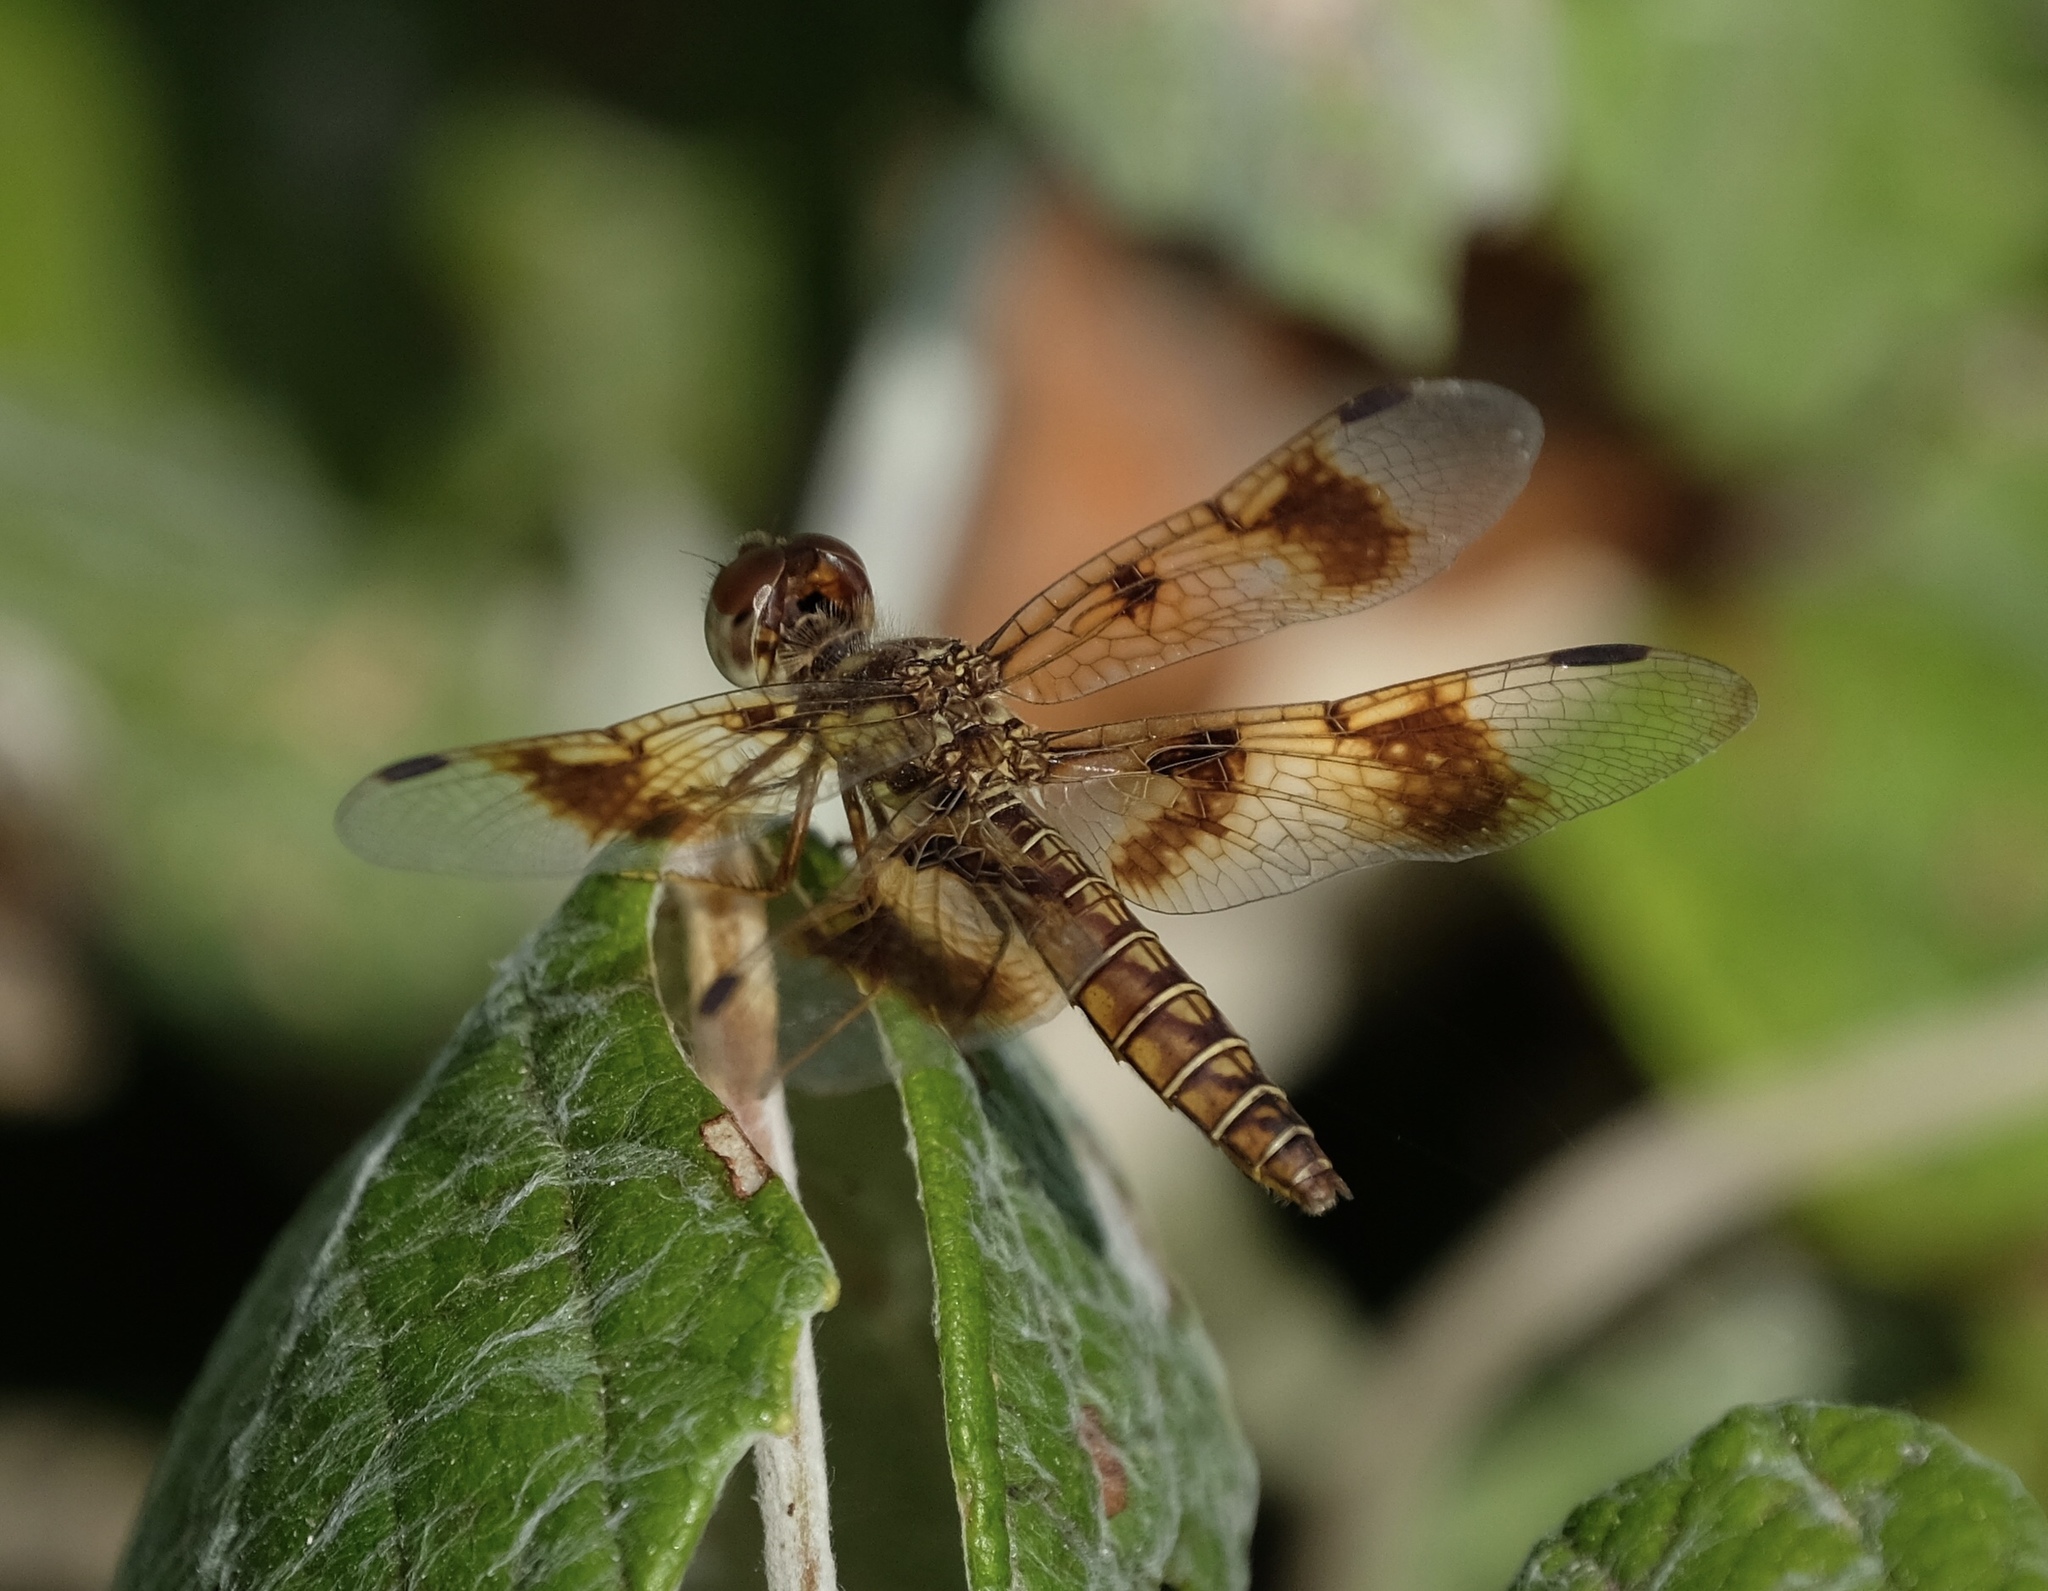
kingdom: Animalia
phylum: Arthropoda
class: Insecta
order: Odonata
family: Libellulidae
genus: Perithemis
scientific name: Perithemis tenera
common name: Eastern amberwing
